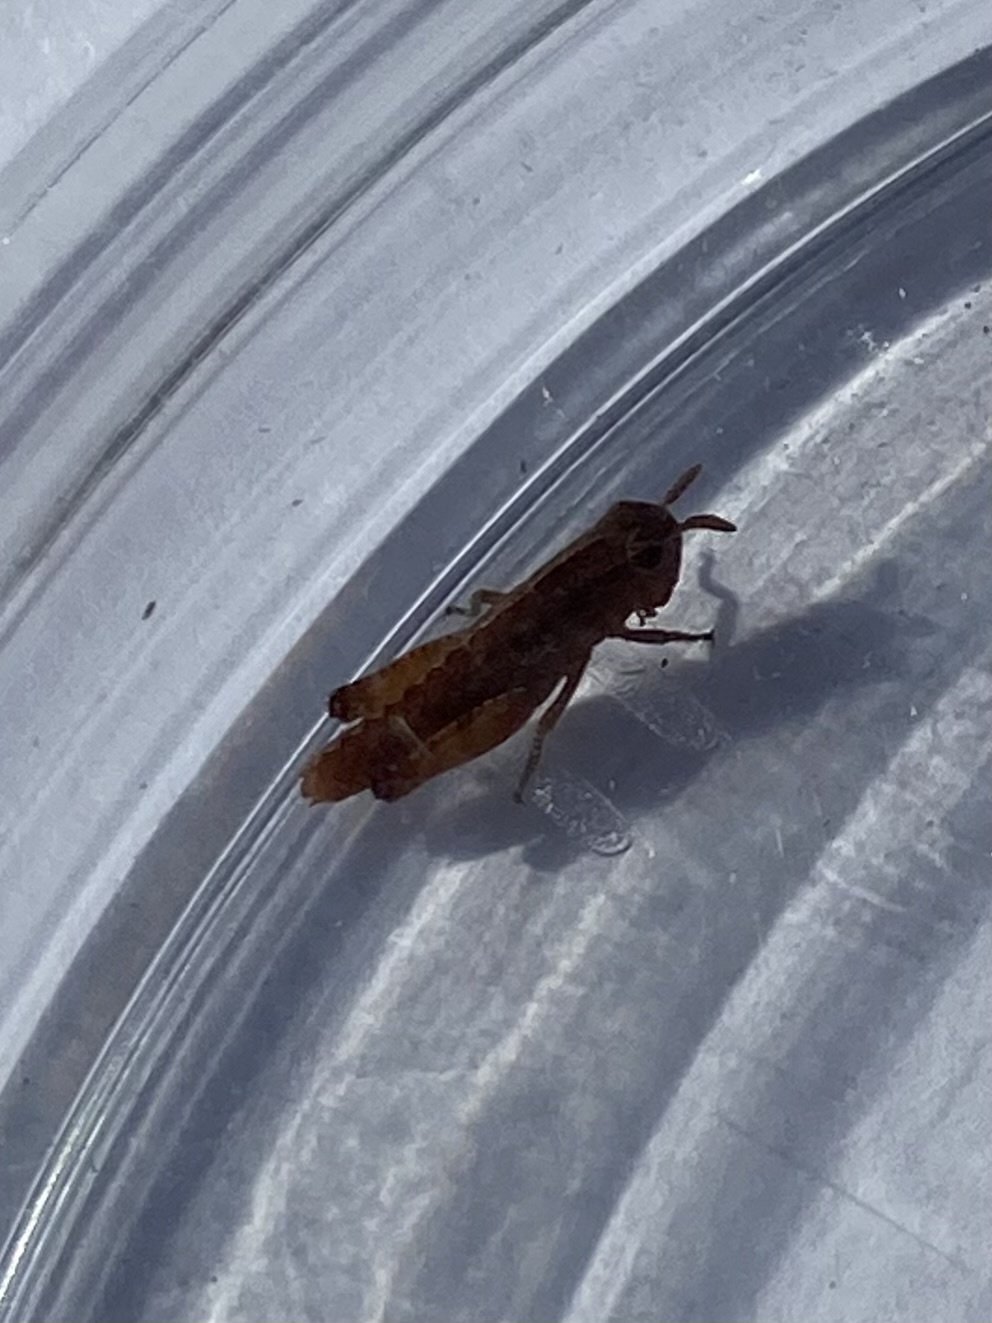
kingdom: Animalia
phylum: Arthropoda
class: Insecta
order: Orthoptera
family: Acrididae
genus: Chortophaga
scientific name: Chortophaga viridifasciata
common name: Green-striped grasshopper
